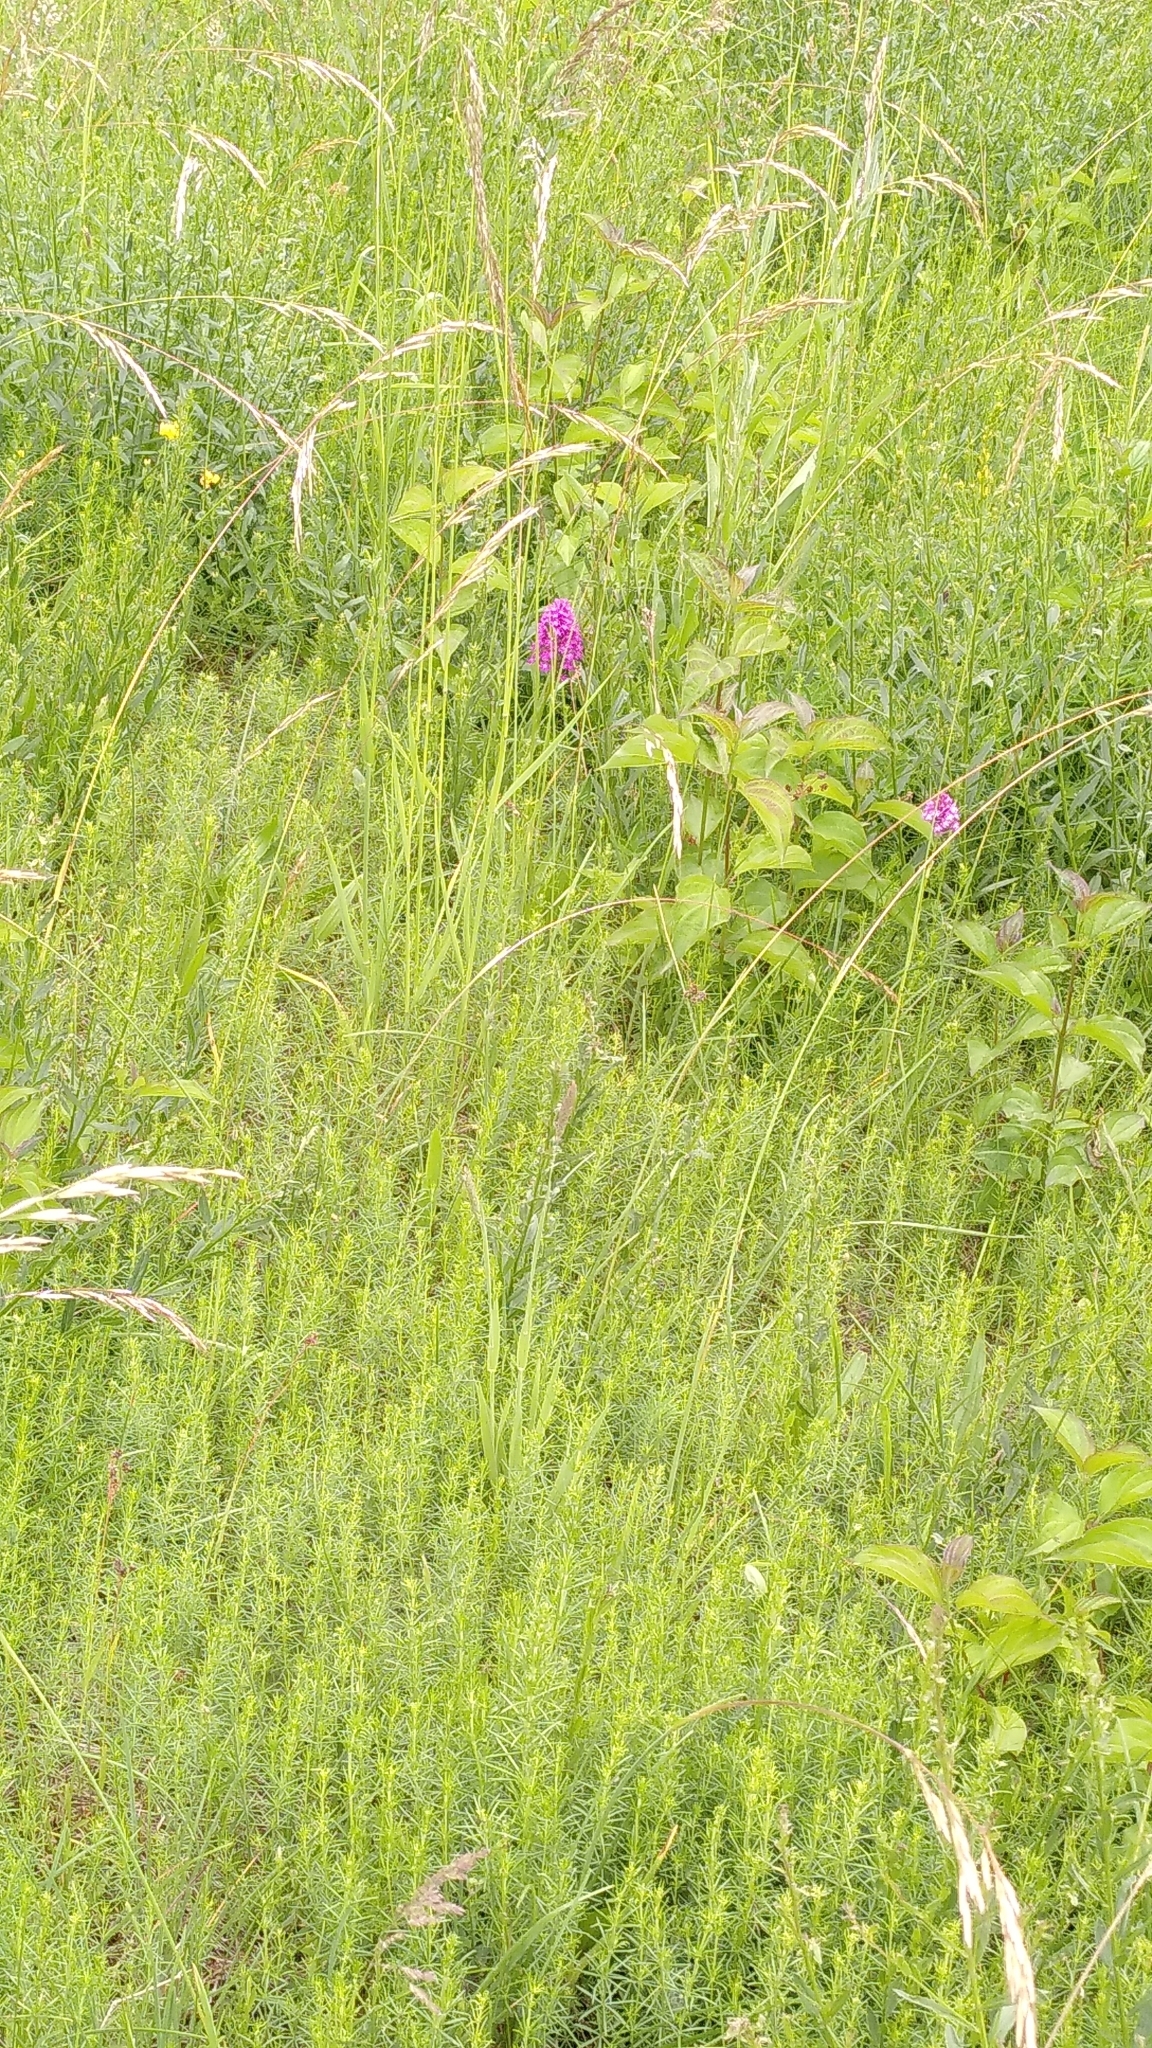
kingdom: Plantae
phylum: Tracheophyta
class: Liliopsida
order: Asparagales
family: Orchidaceae
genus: Anacamptis
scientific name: Anacamptis pyramidalis
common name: Pyramidal orchid
